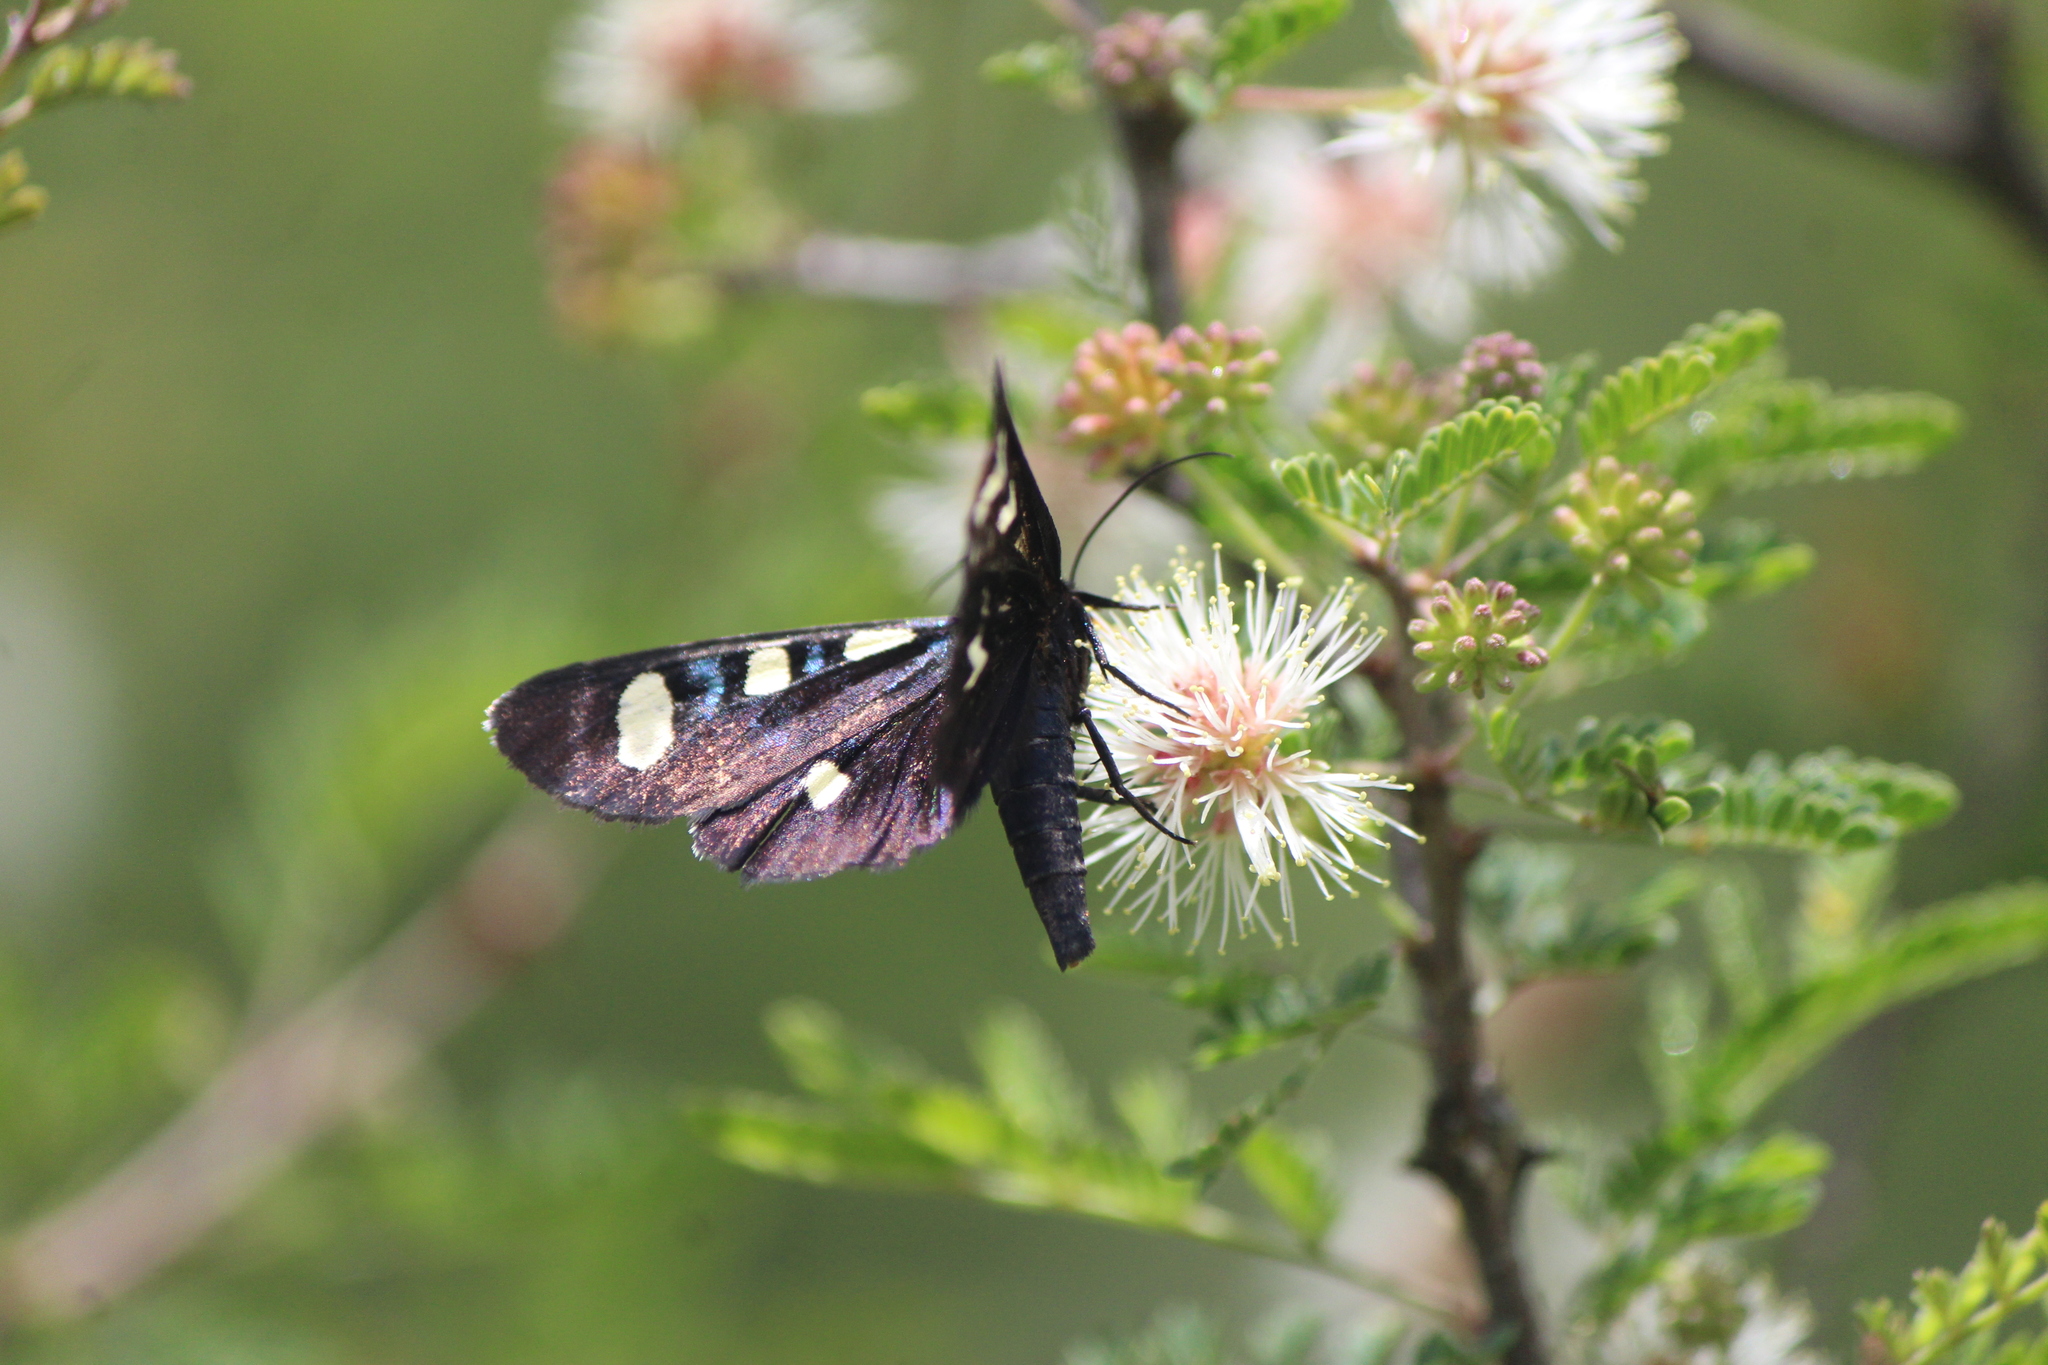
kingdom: Animalia
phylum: Arthropoda
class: Insecta
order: Lepidoptera
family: Noctuidae
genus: Alypiodes
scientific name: Alypiodes bimaculata
